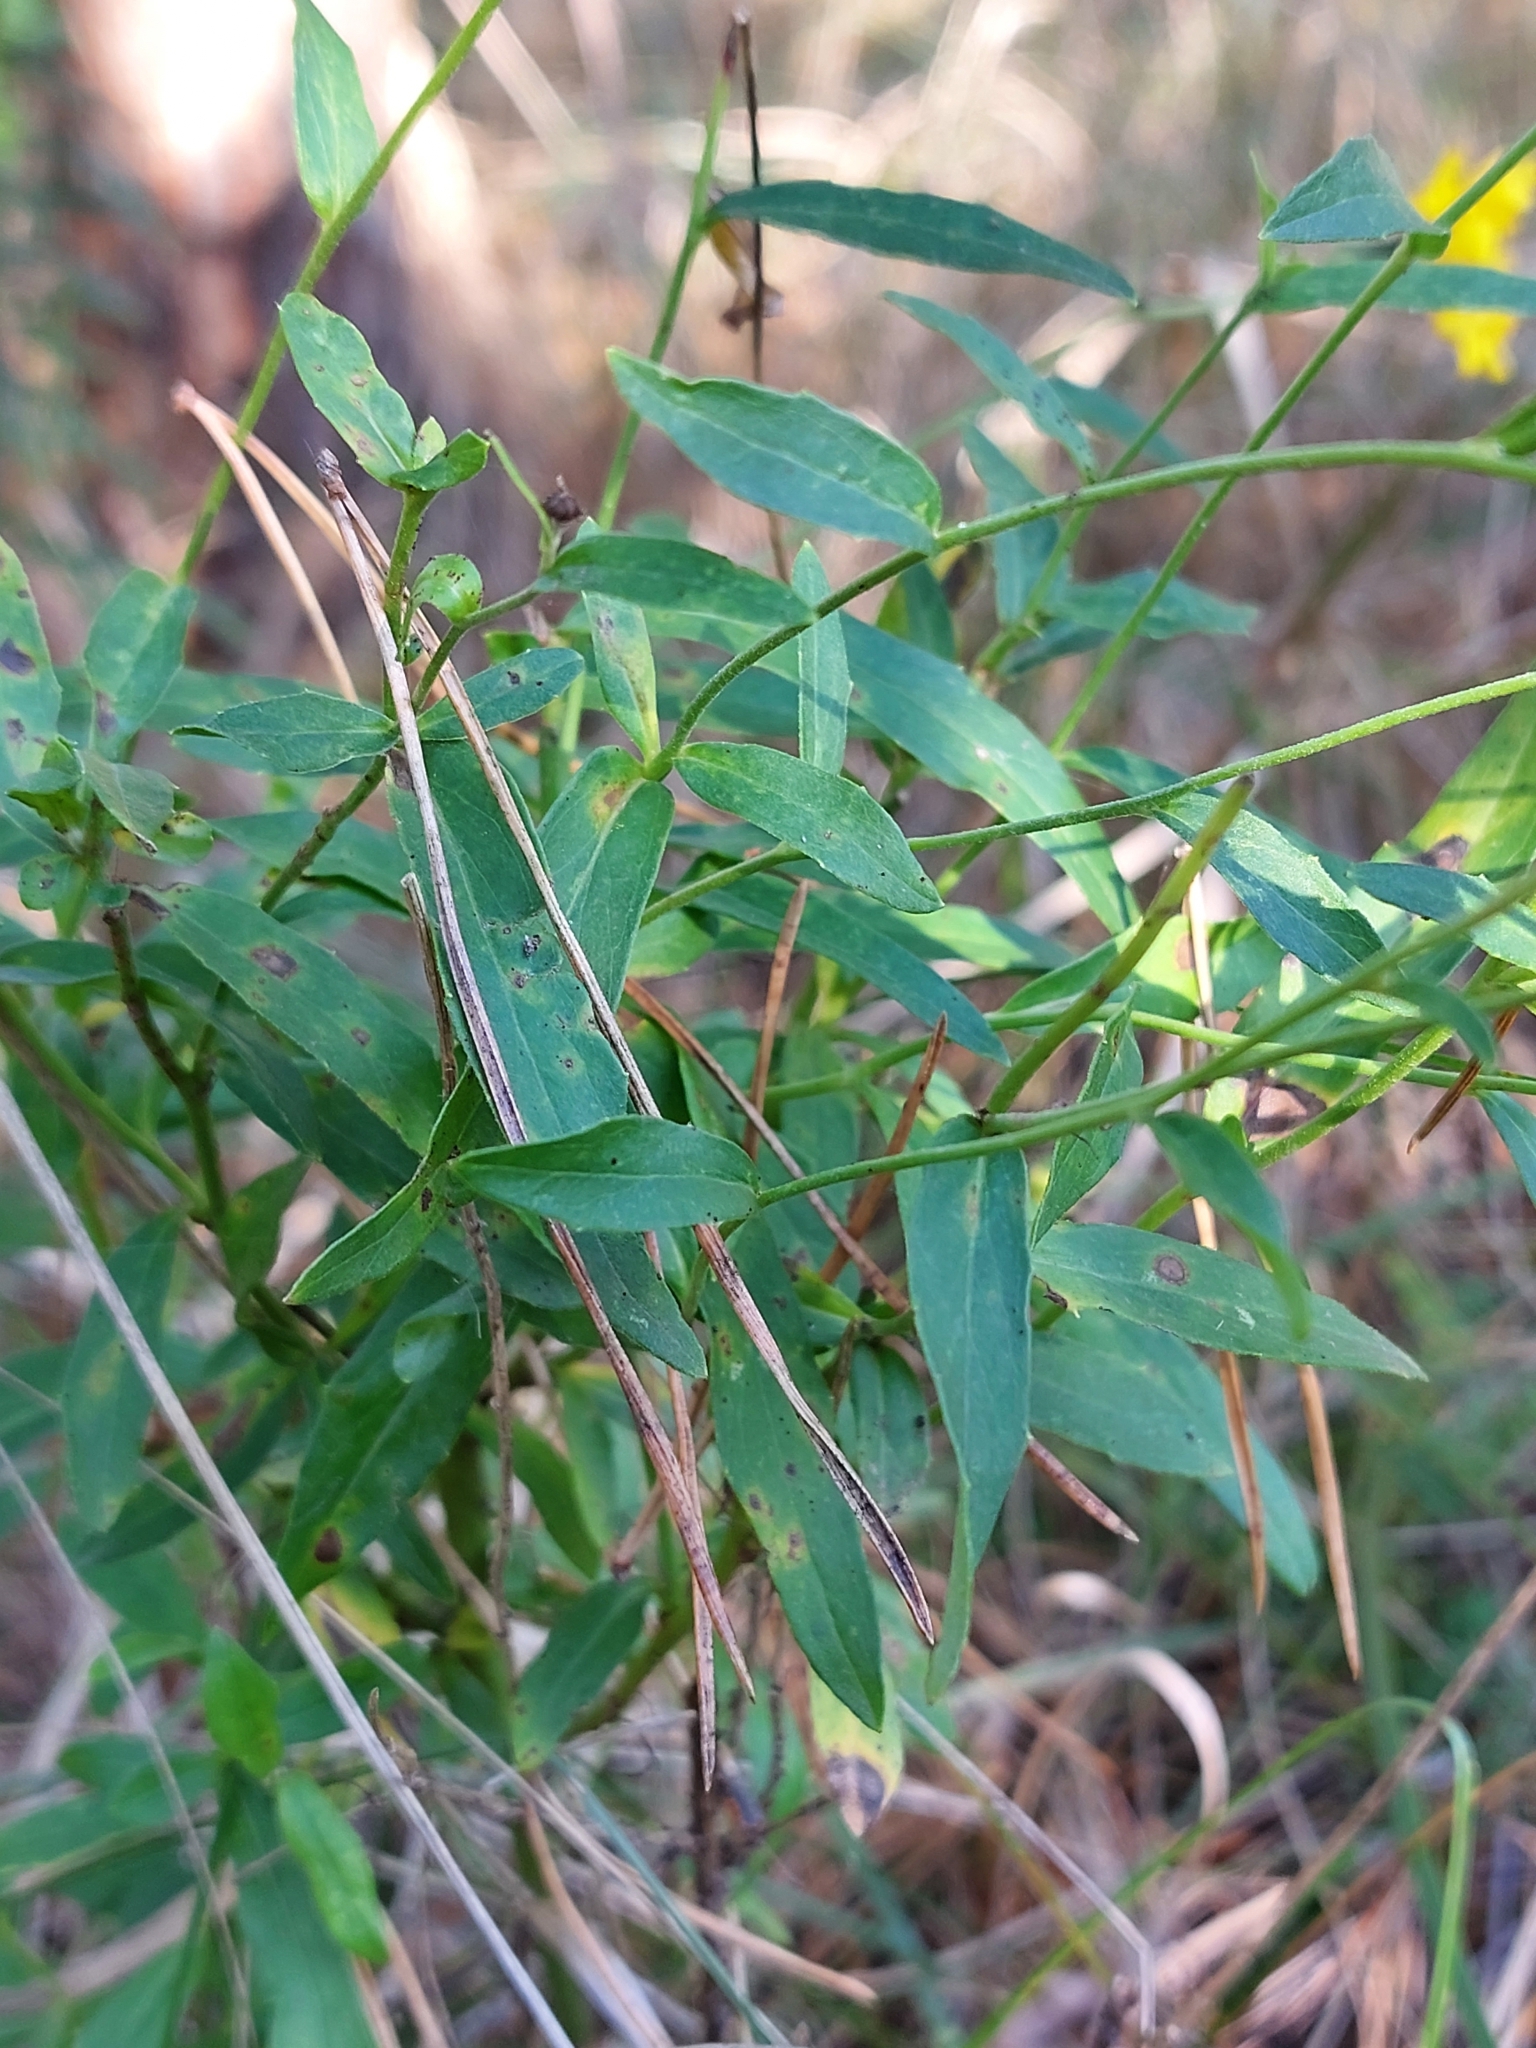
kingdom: Plantae
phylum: Tracheophyta
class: Magnoliopsida
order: Asterales
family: Asteraceae
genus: Hieracium
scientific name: Hieracium umbellatum
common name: Northern hawkweed
